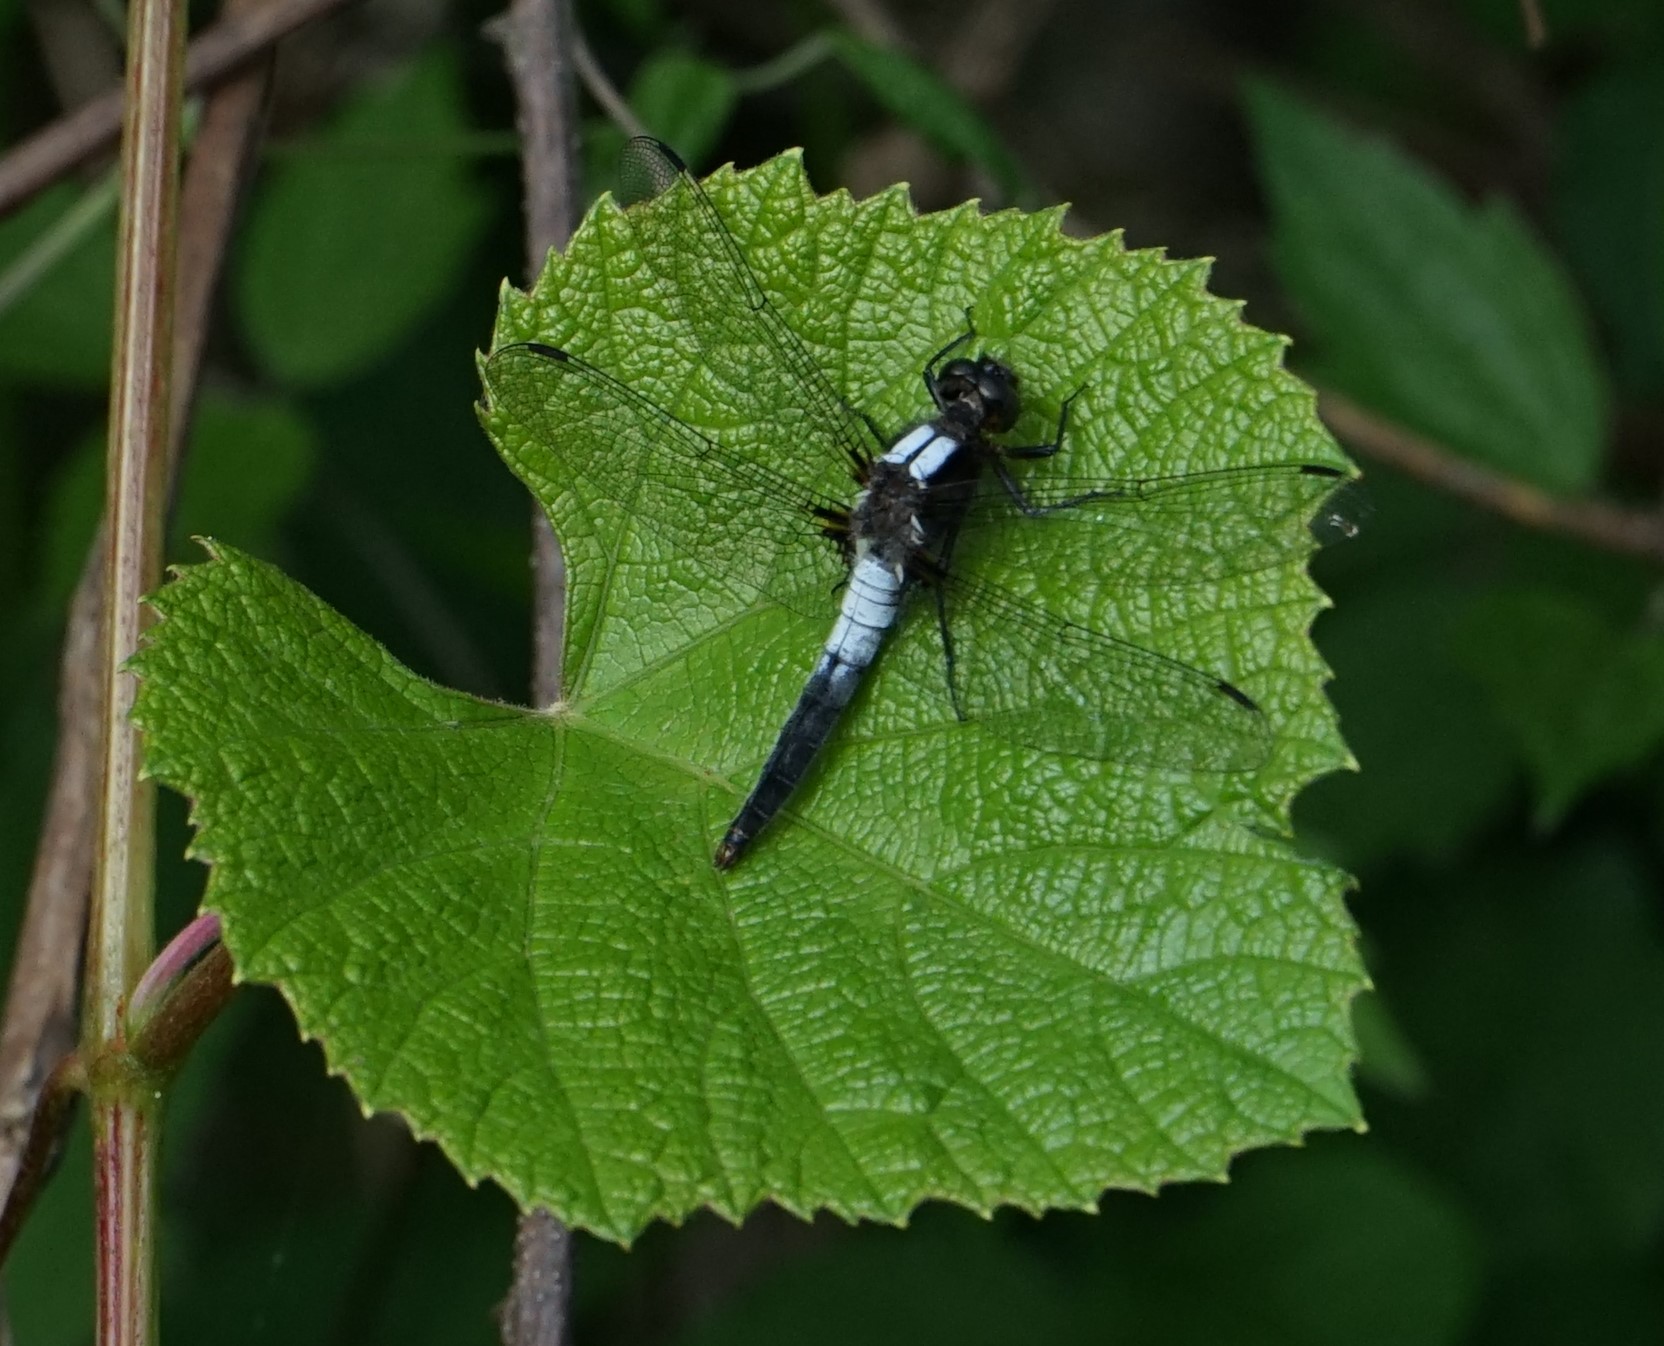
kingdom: Animalia
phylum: Arthropoda
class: Insecta
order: Odonata
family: Libellulidae
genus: Ladona
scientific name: Ladona julia
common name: Chalk-fronted corporal
